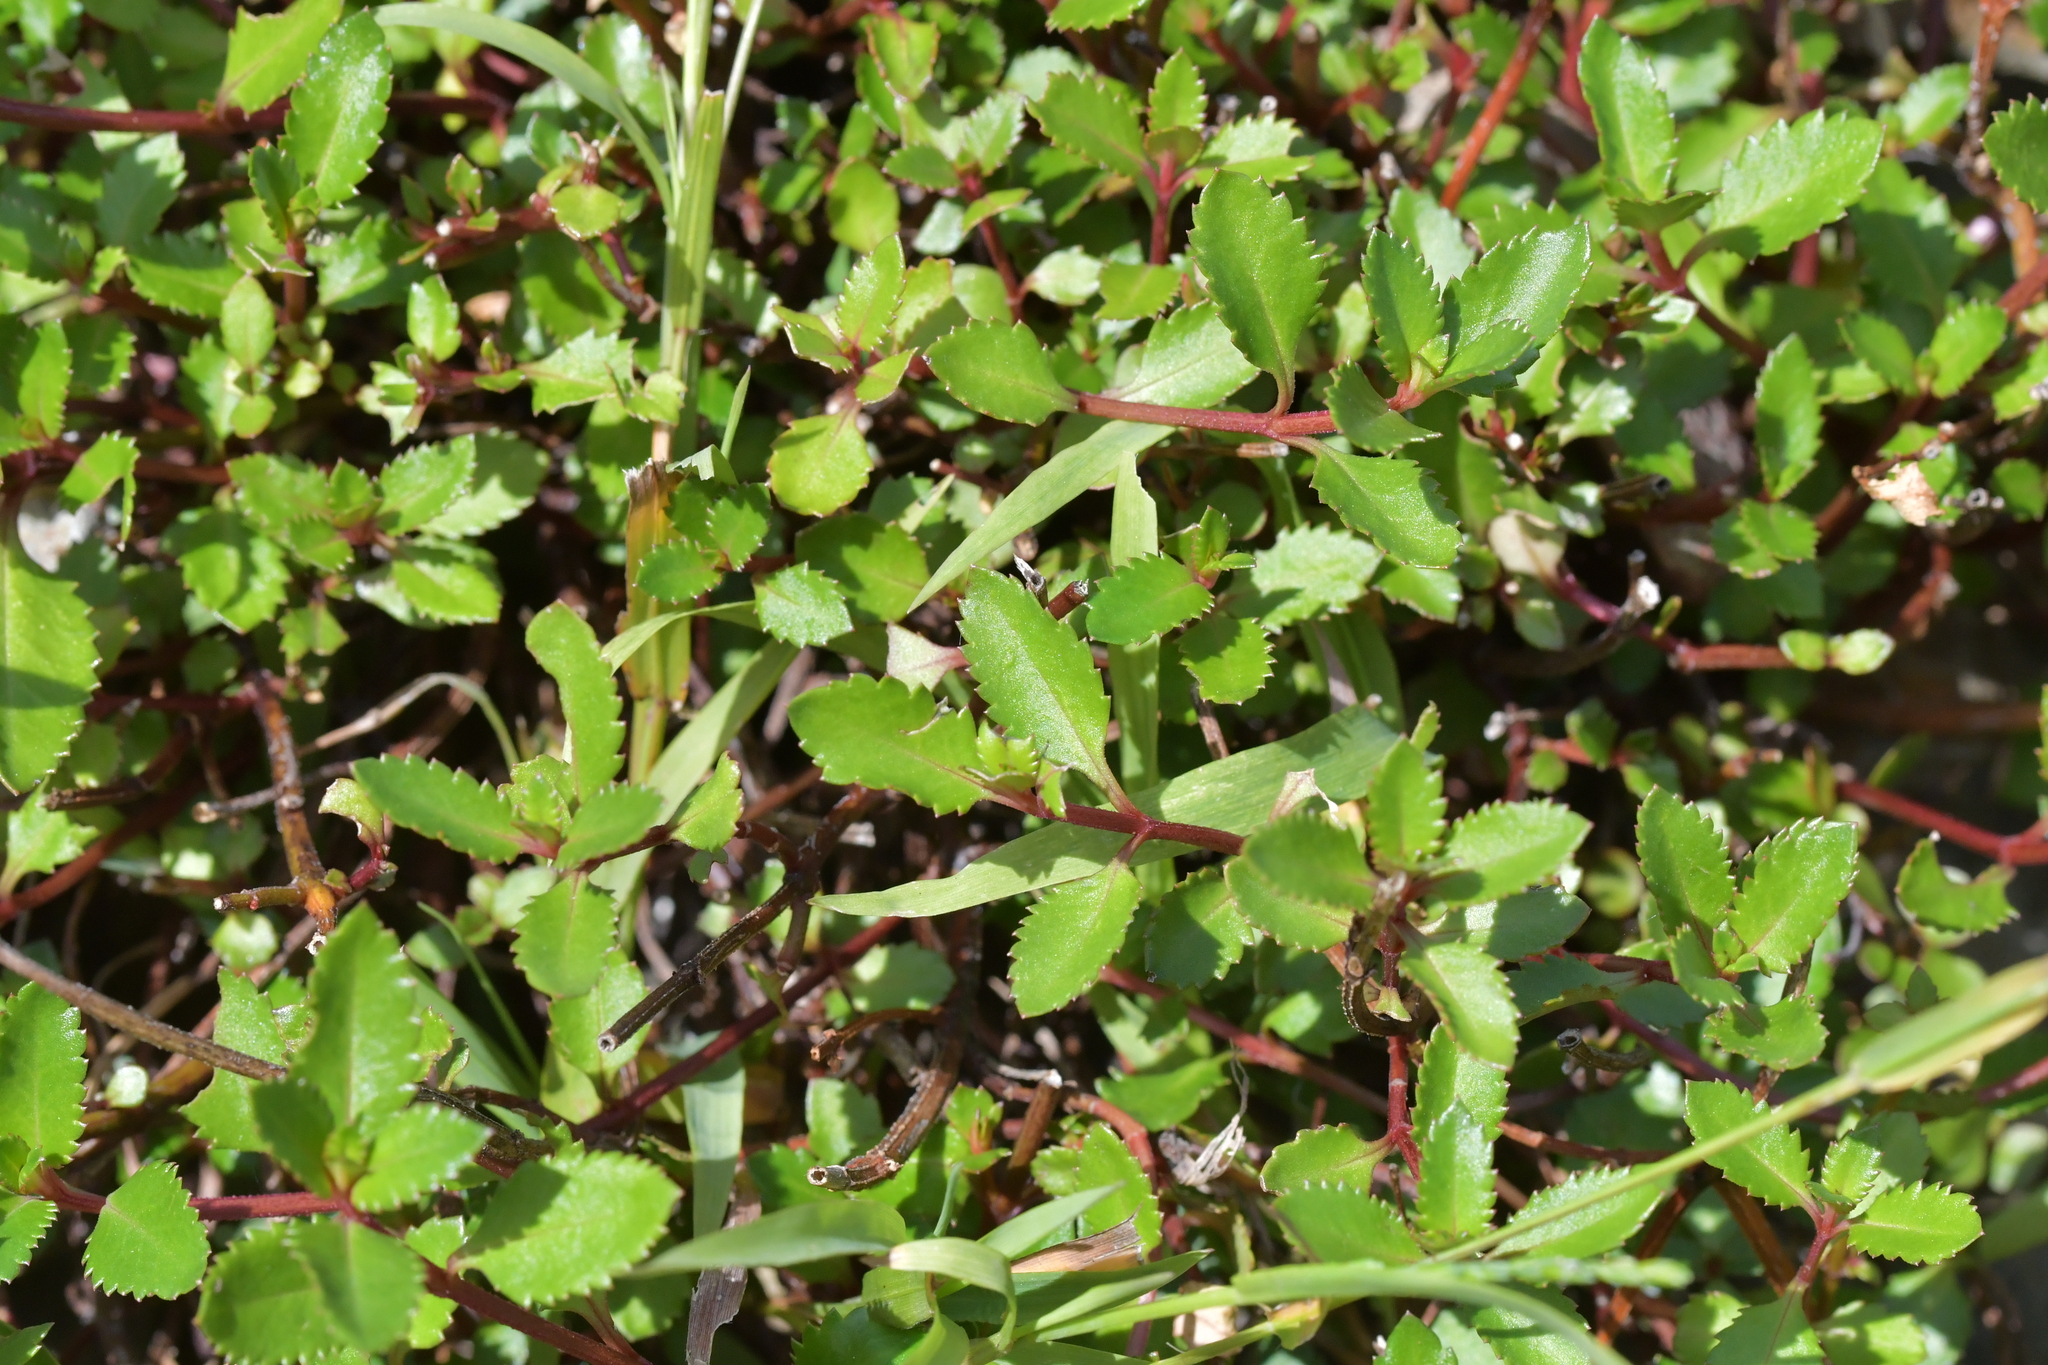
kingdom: Plantae
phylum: Tracheophyta
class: Magnoliopsida
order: Saxifragales
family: Haloragaceae
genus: Haloragis
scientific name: Haloragis erecta
